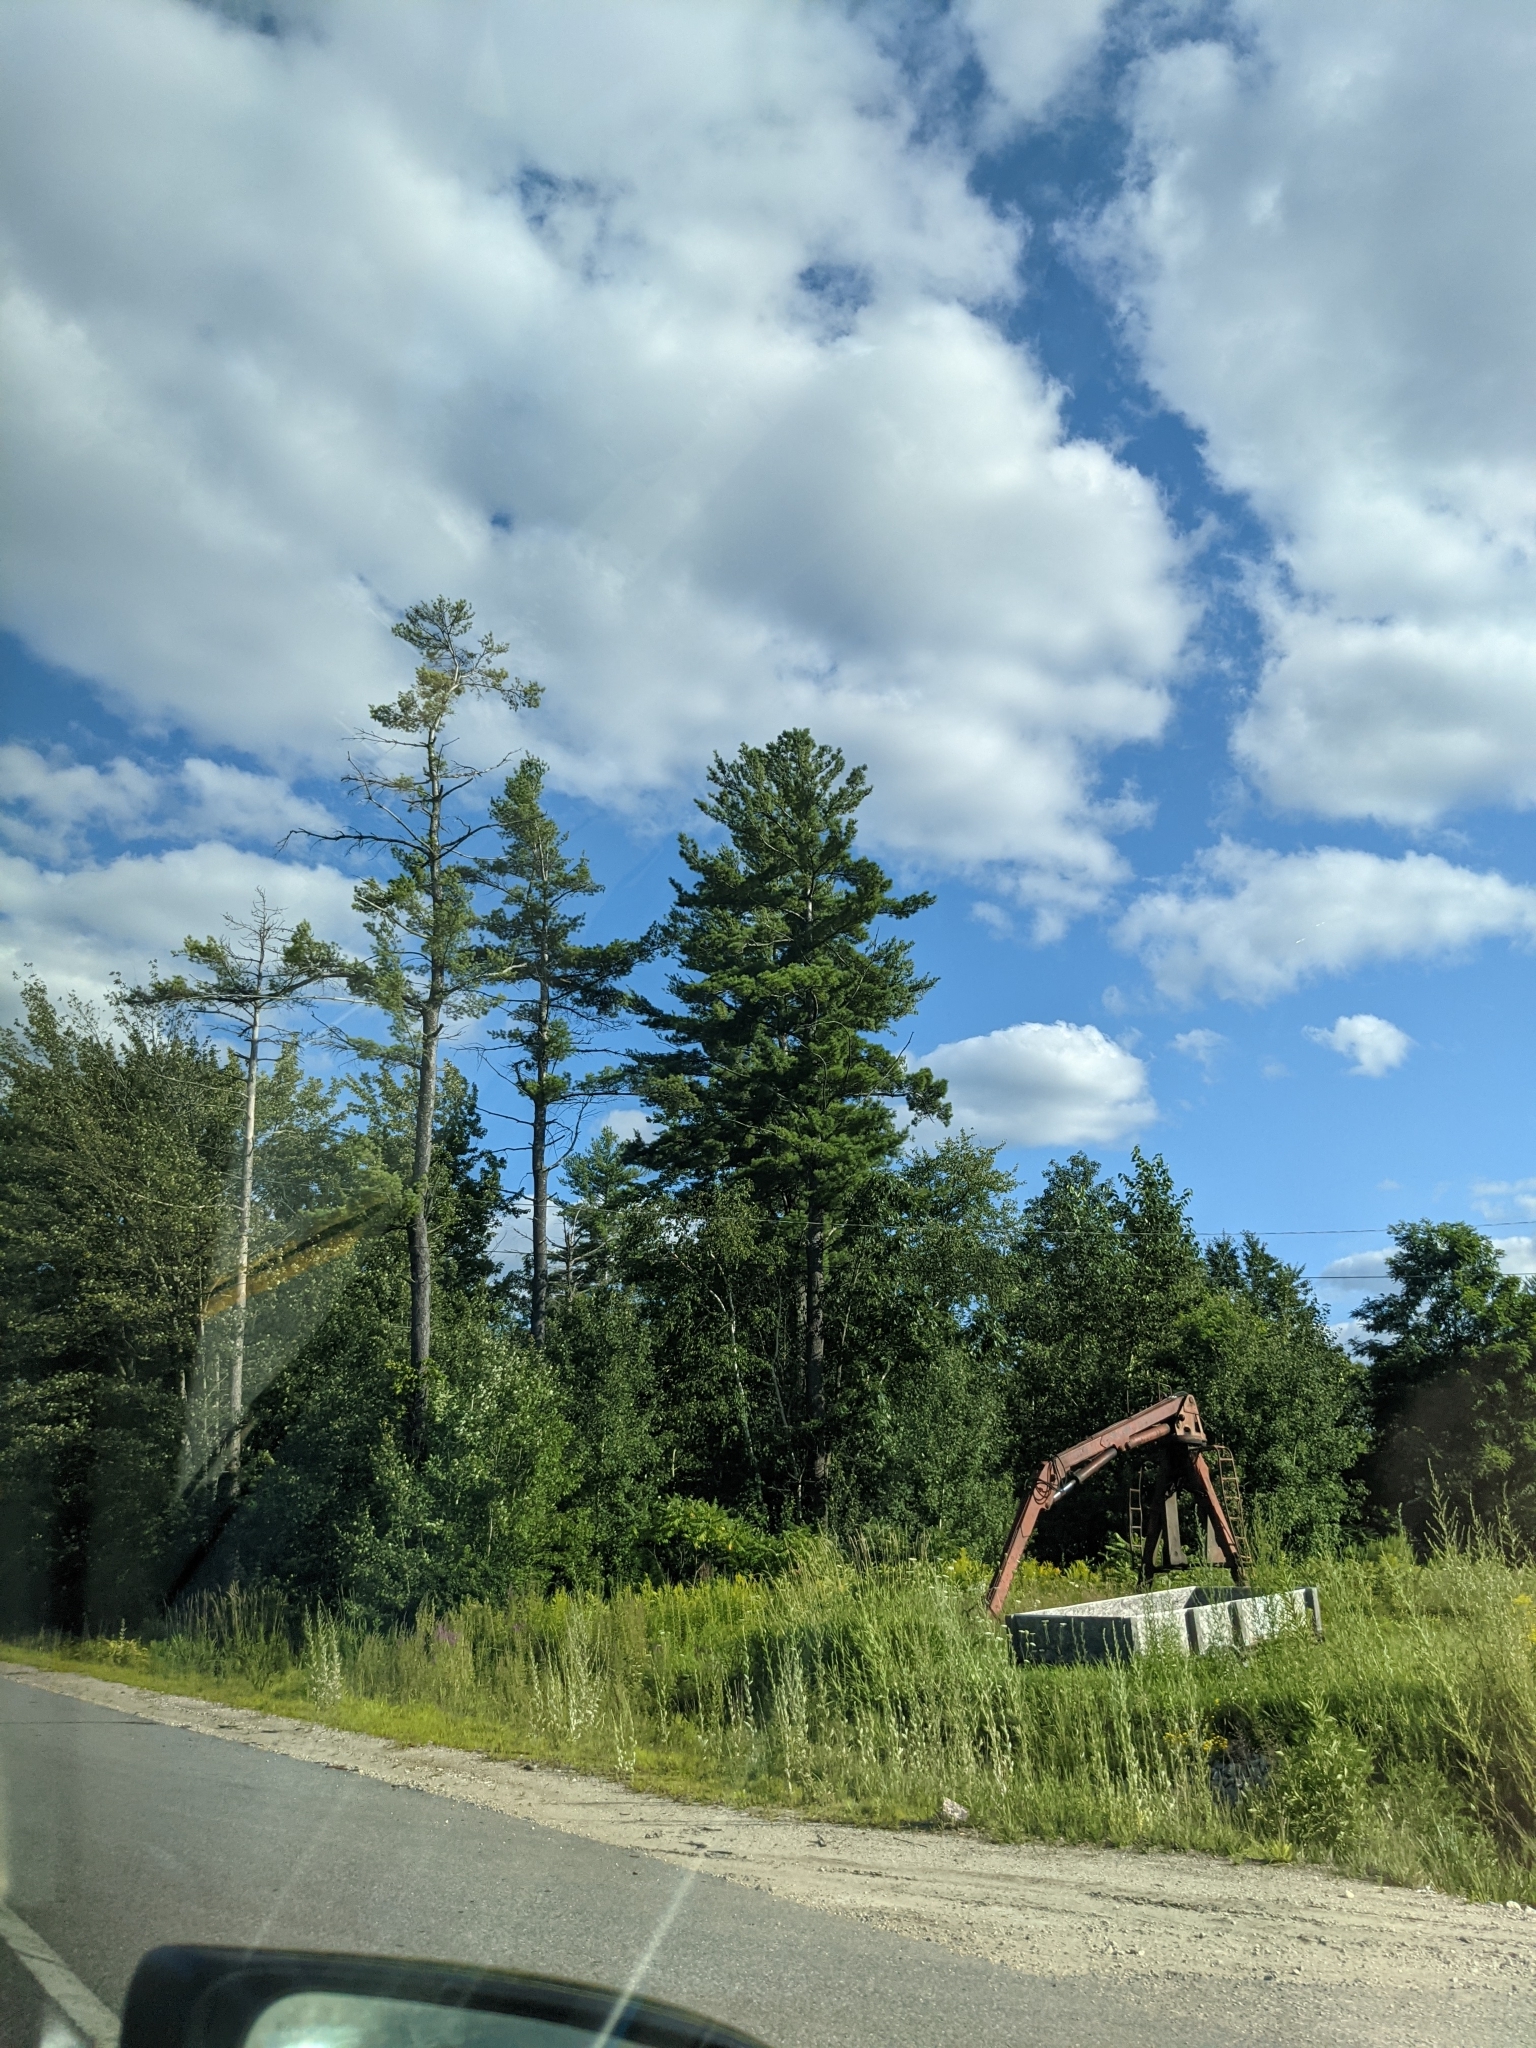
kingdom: Plantae
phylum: Tracheophyta
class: Pinopsida
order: Pinales
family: Pinaceae
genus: Pinus
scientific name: Pinus strobus
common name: Weymouth pine
